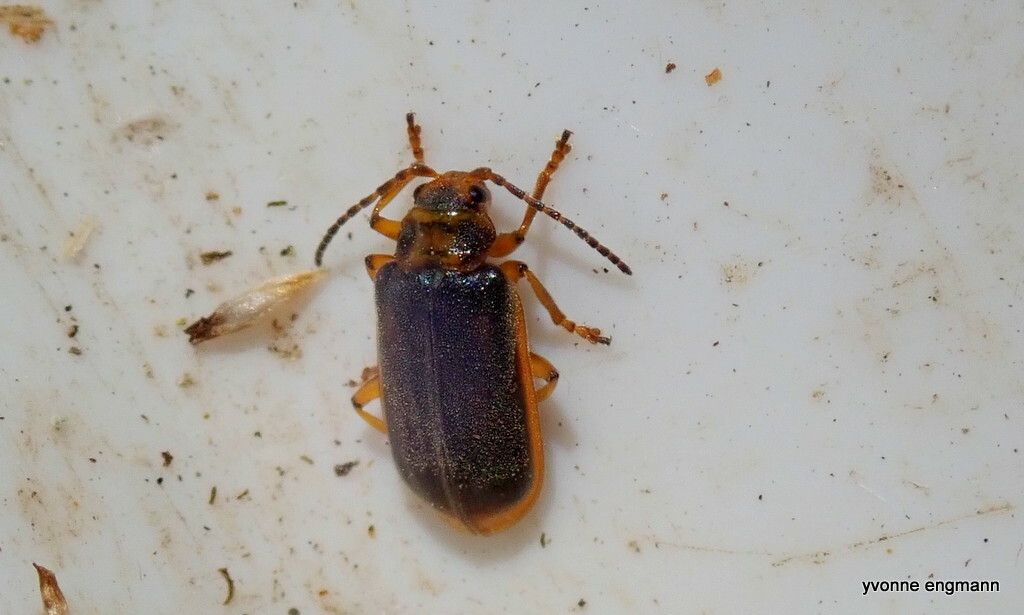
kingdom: Animalia
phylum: Arthropoda
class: Insecta
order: Coleoptera
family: Chrysomelidae
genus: Galerucella
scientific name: Galerucella nymphaeae
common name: Leaf beetle
